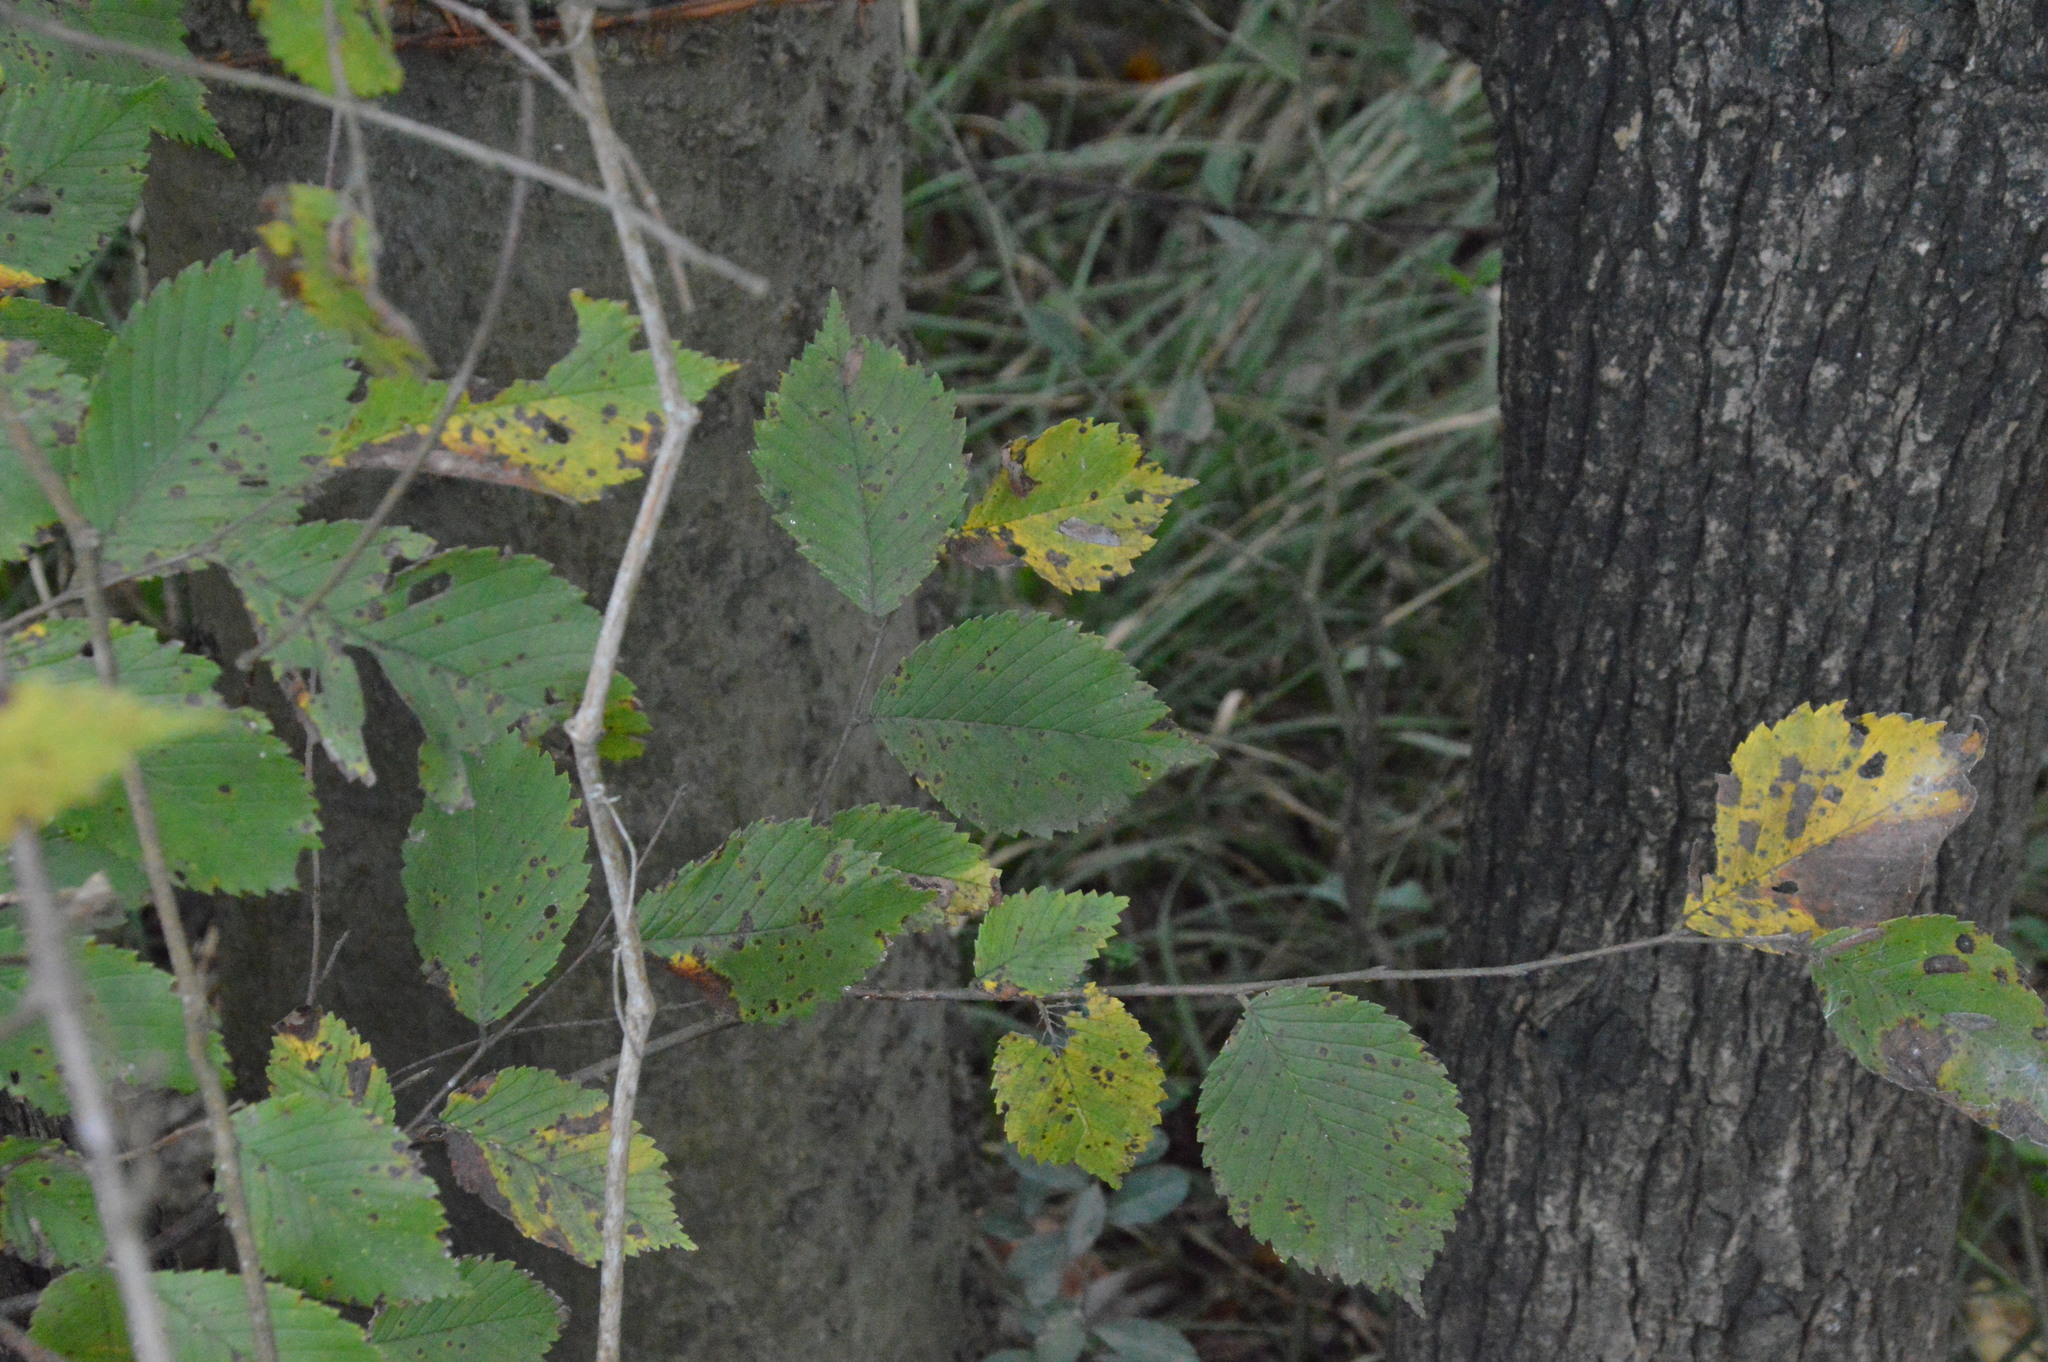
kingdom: Plantae
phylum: Tracheophyta
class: Magnoliopsida
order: Rosales
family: Ulmaceae
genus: Ulmus
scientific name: Ulmus americana
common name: American elm
